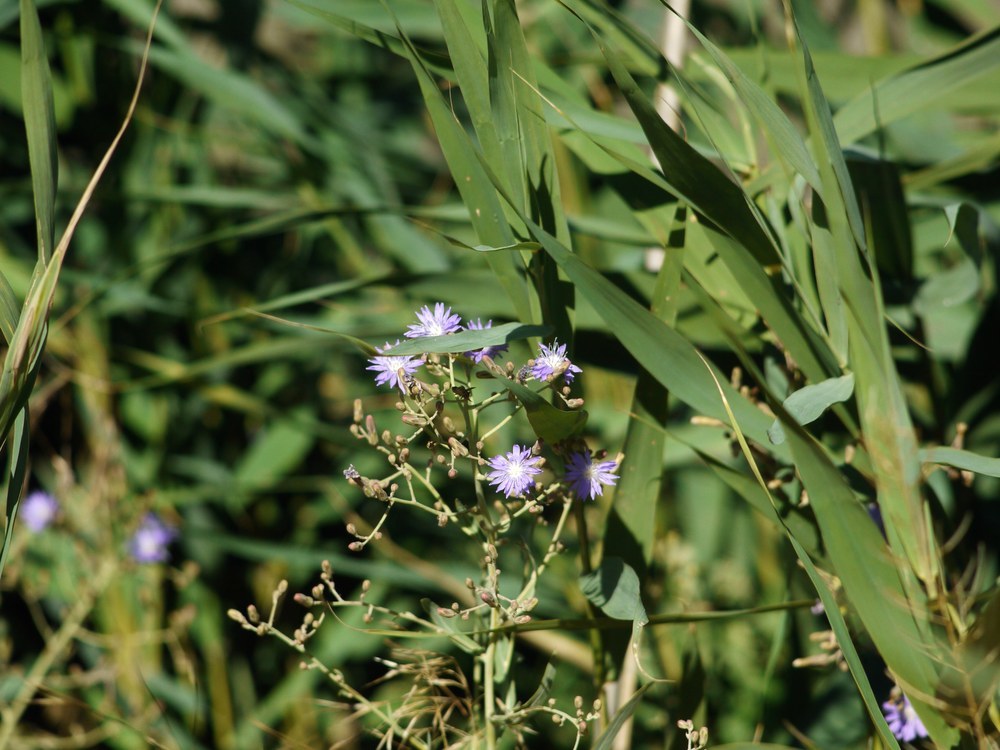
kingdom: Plantae
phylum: Tracheophyta
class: Magnoliopsida
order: Asterales
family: Asteraceae
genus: Lactuca
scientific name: Lactuca tatarica
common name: Blue lettuce
